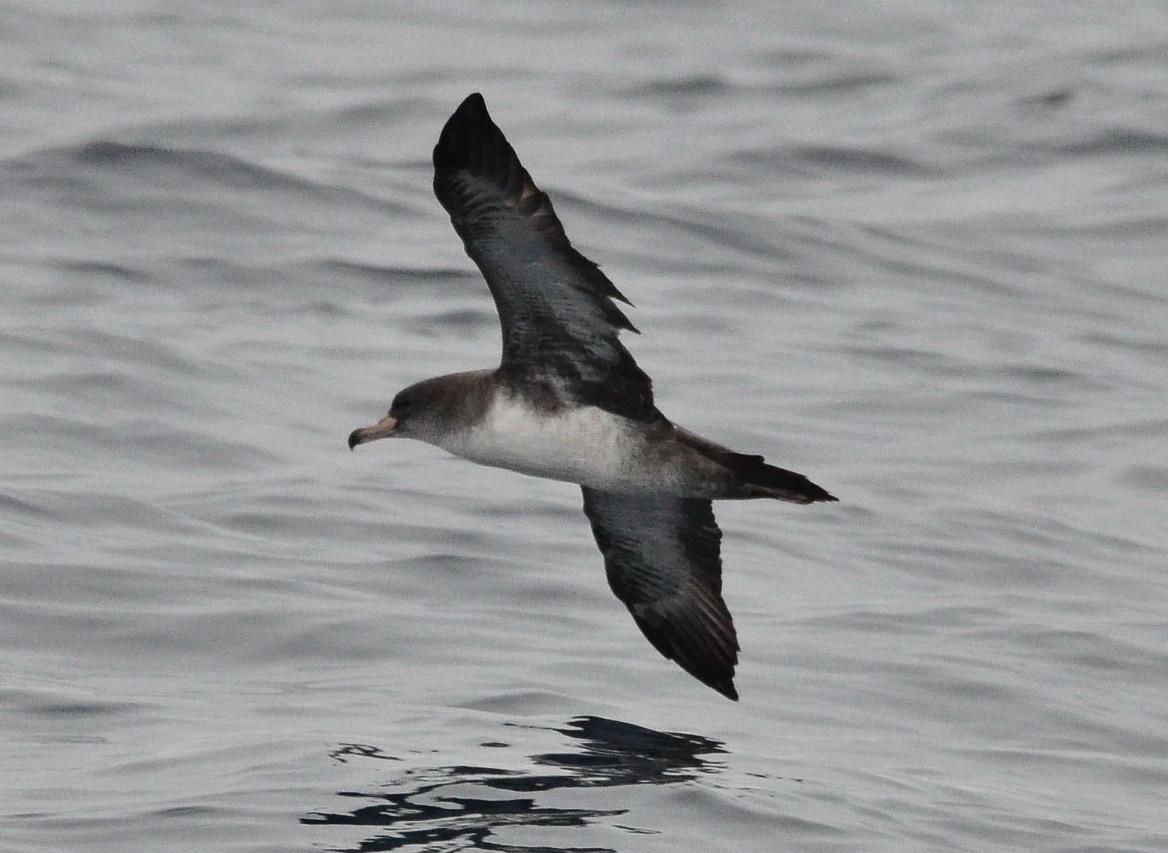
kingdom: Animalia
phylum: Chordata
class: Aves
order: Procellariiformes
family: Procellariidae
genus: Puffinus
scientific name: Puffinus creatopus
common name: Pink-footed shearwater
